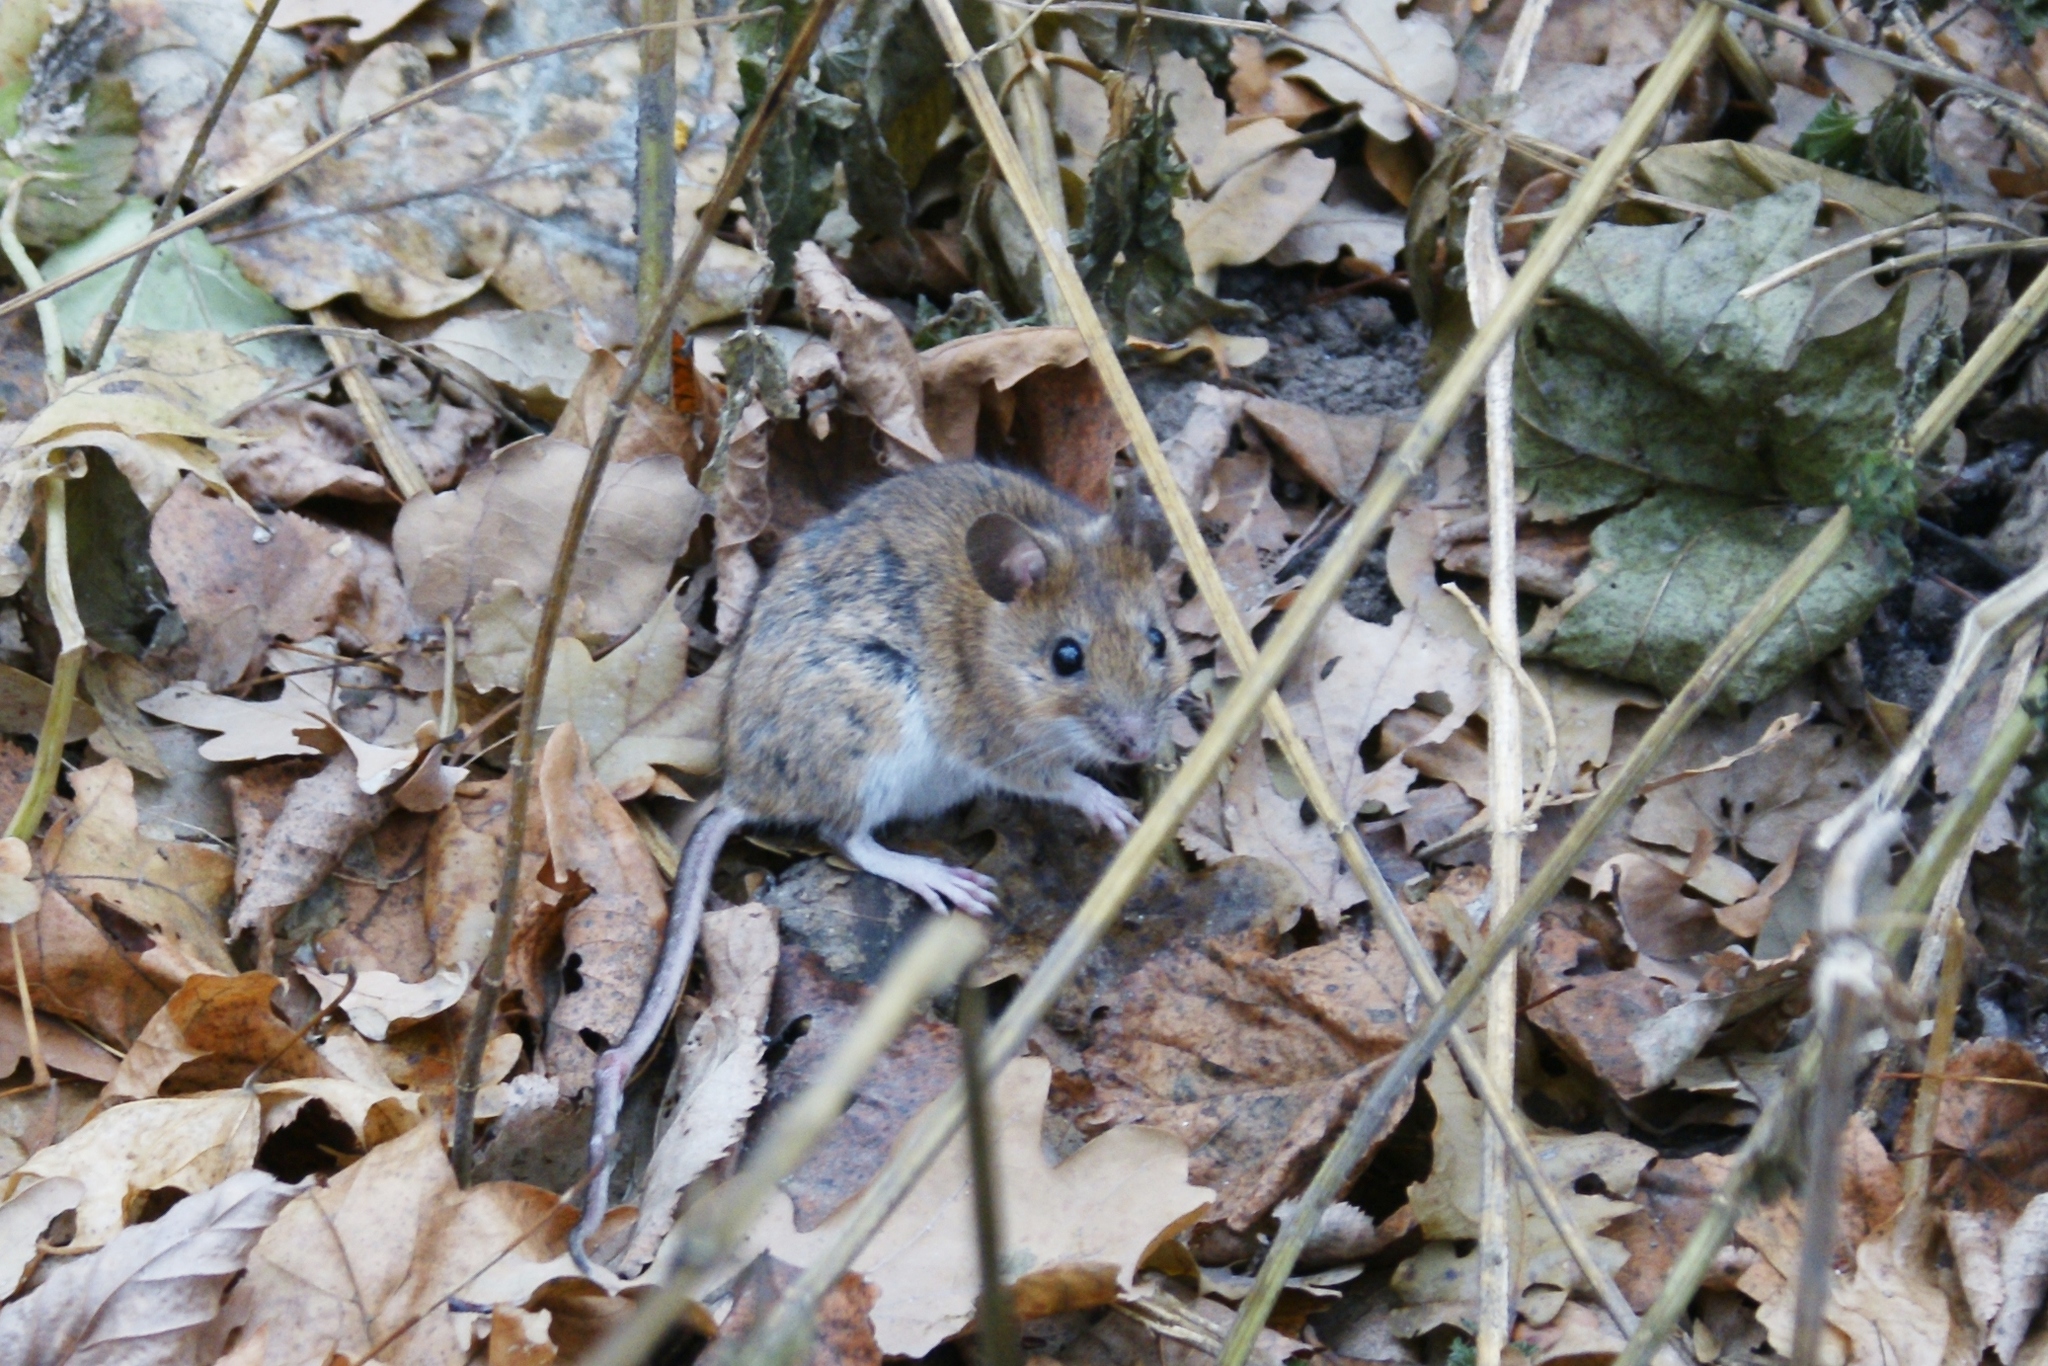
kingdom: Animalia
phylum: Chordata
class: Mammalia
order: Rodentia
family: Muridae
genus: Apodemus
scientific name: Apodemus uralensis
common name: Herb field mouse
